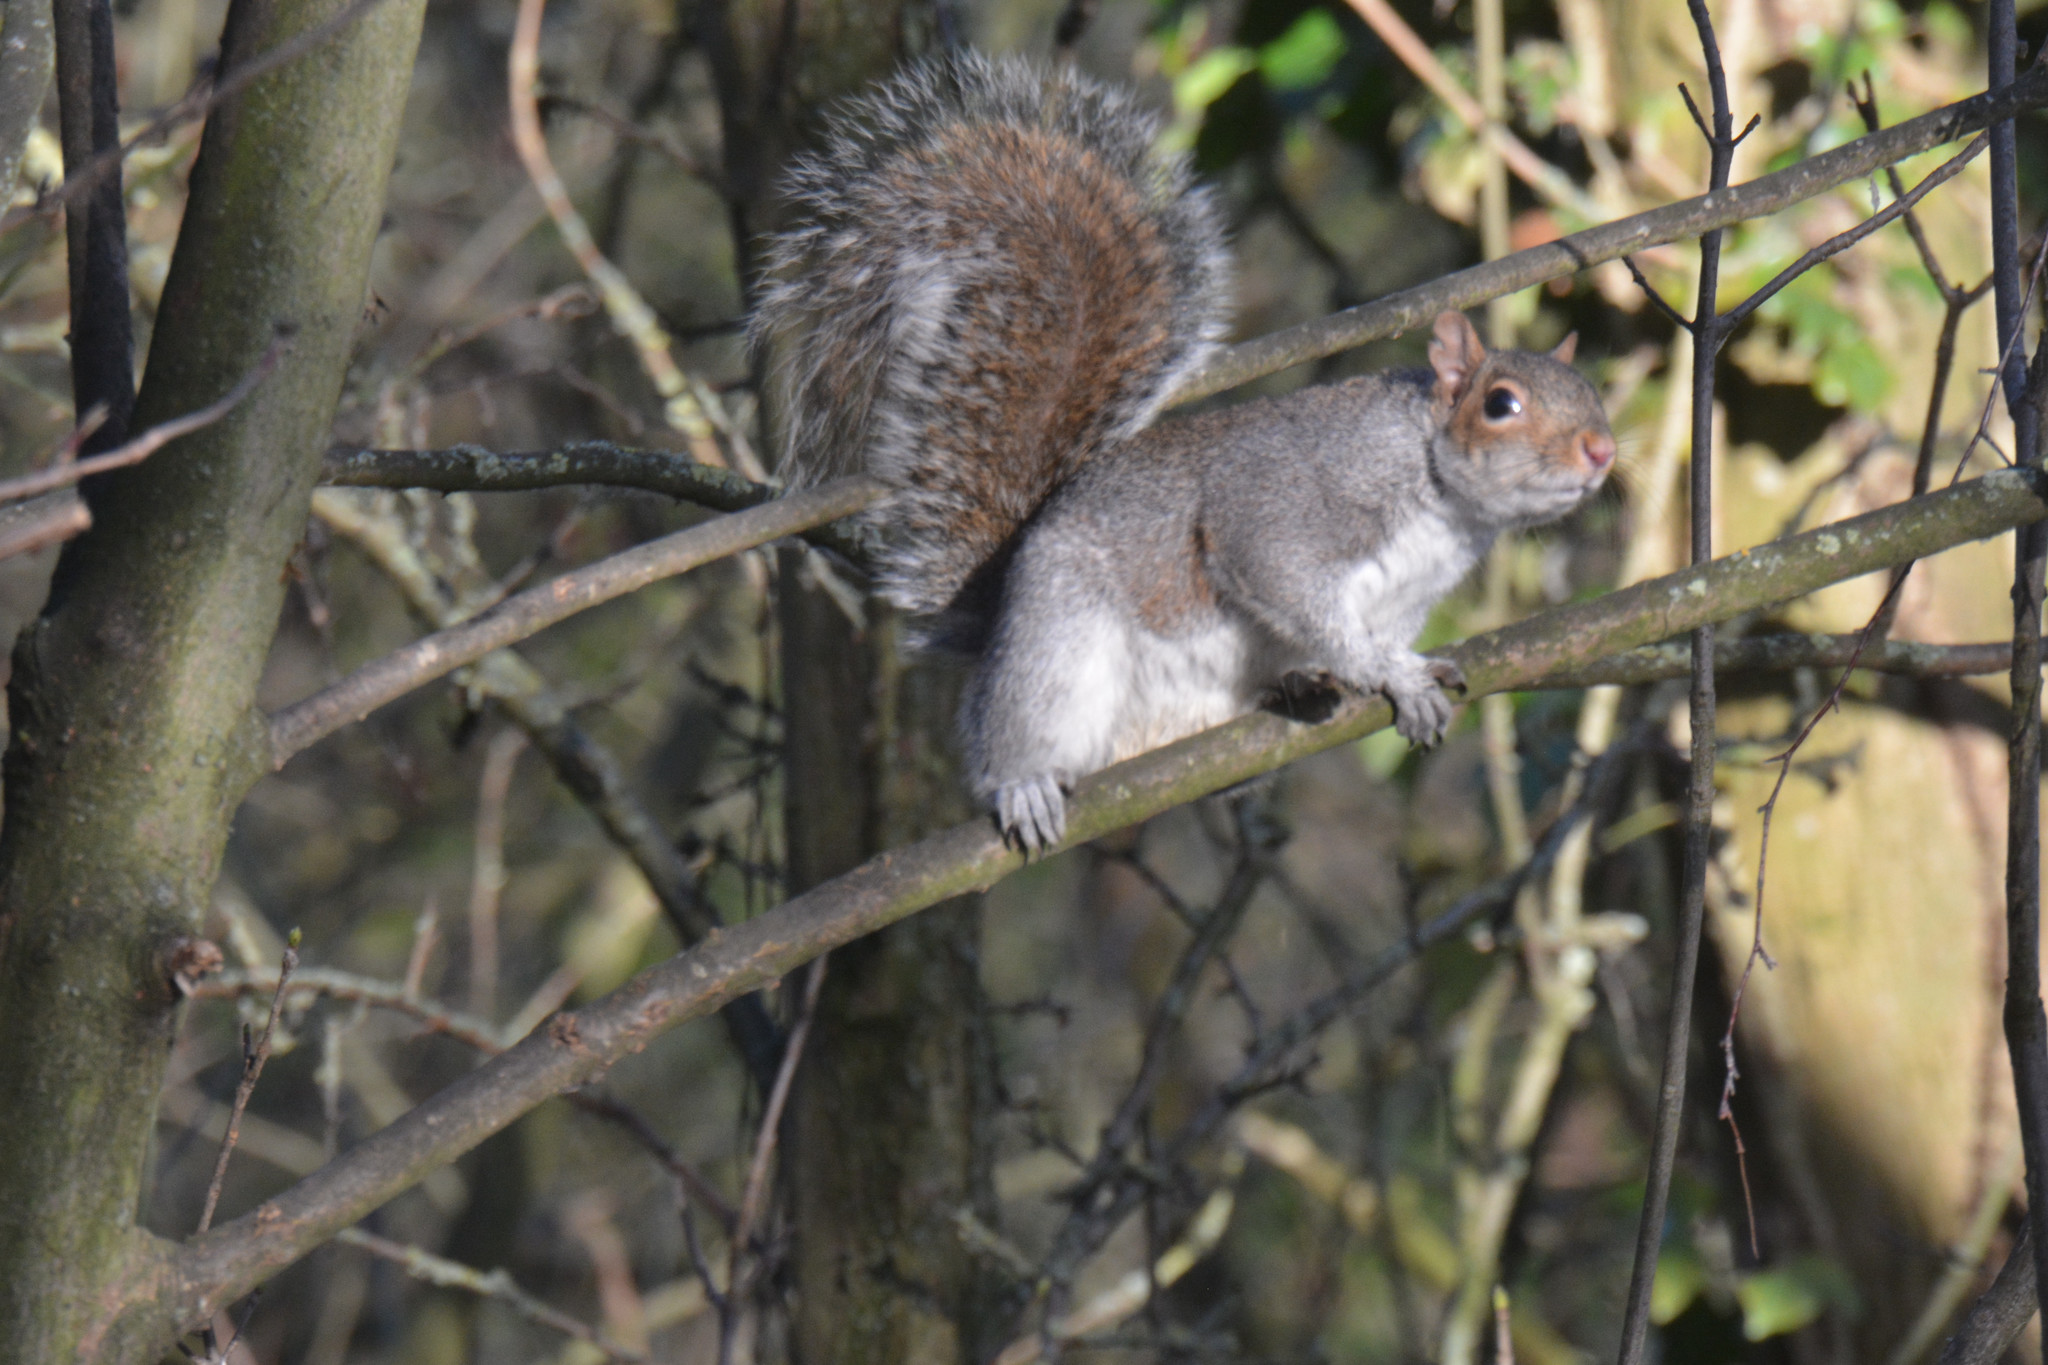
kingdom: Animalia
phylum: Chordata
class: Mammalia
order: Rodentia
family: Sciuridae
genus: Sciurus
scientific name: Sciurus carolinensis
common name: Eastern gray squirrel
